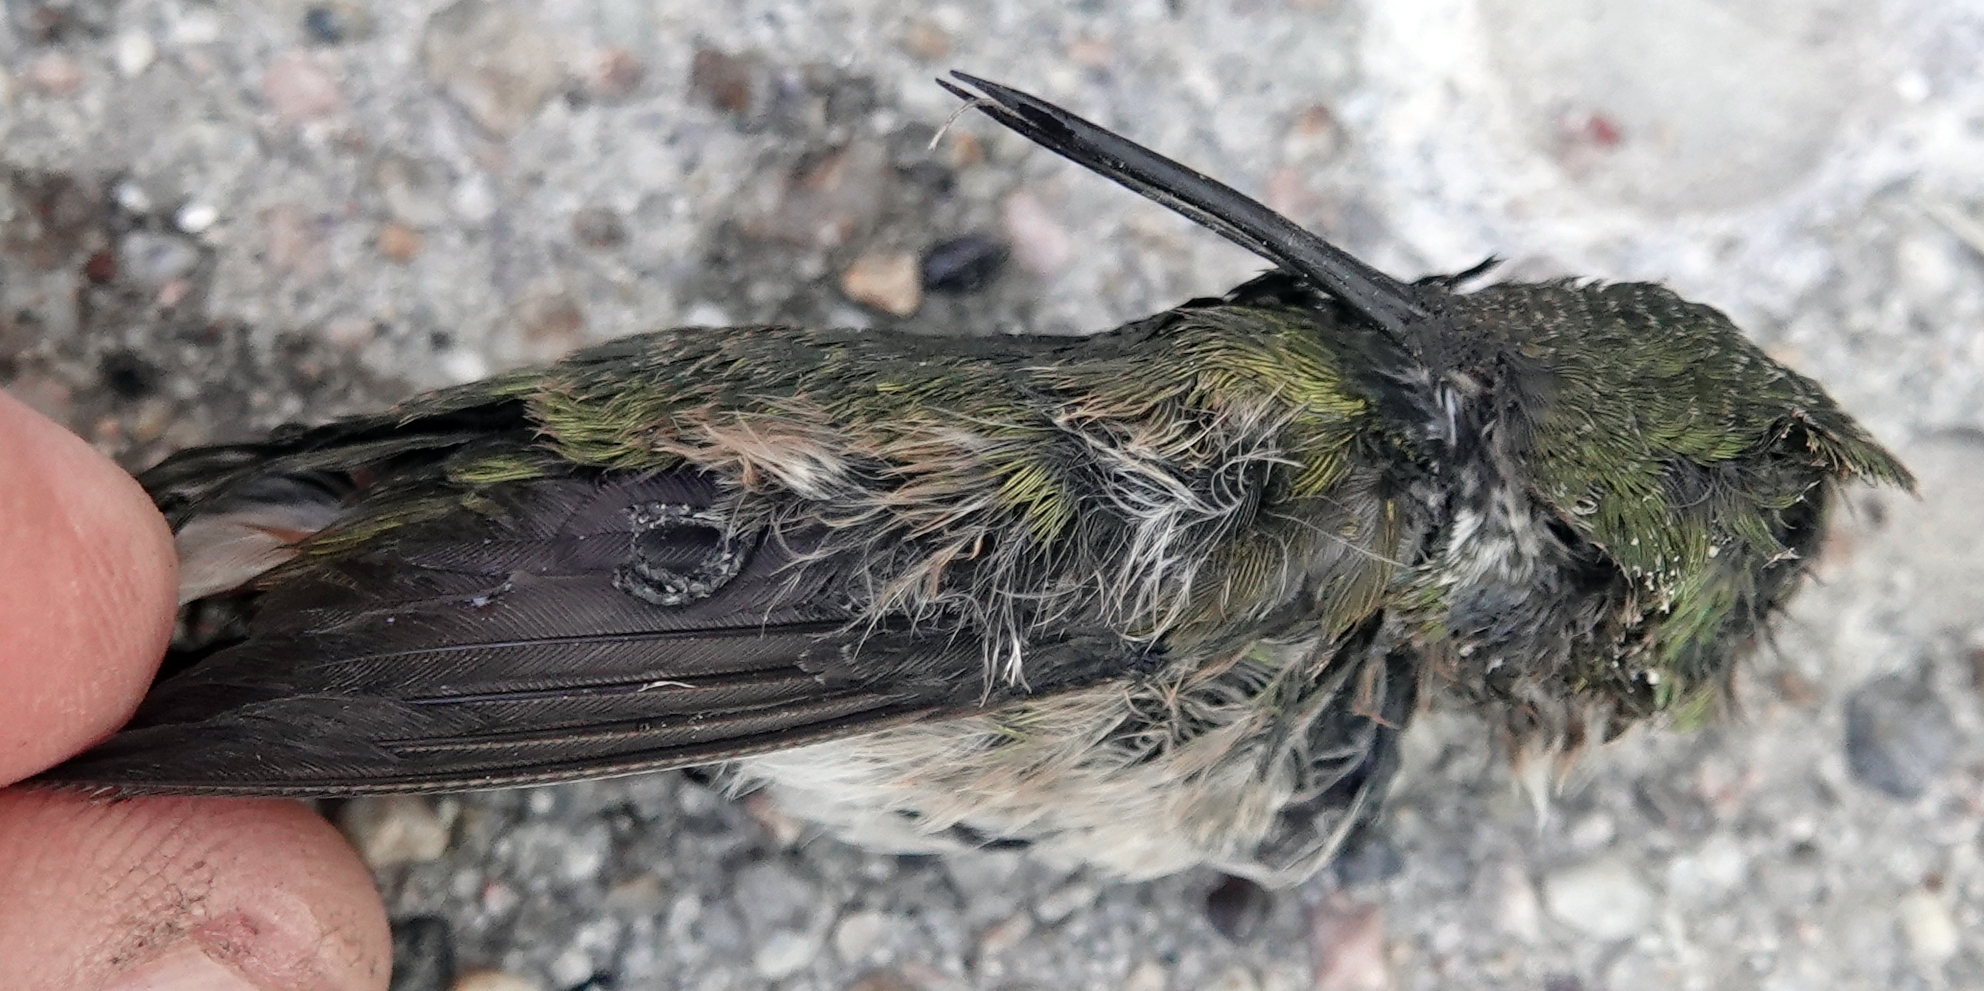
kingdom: Animalia
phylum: Chordata
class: Aves
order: Apodiformes
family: Trochilidae
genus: Selasphorus
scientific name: Selasphorus platycercus
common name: Broad-tailed hummingbird
